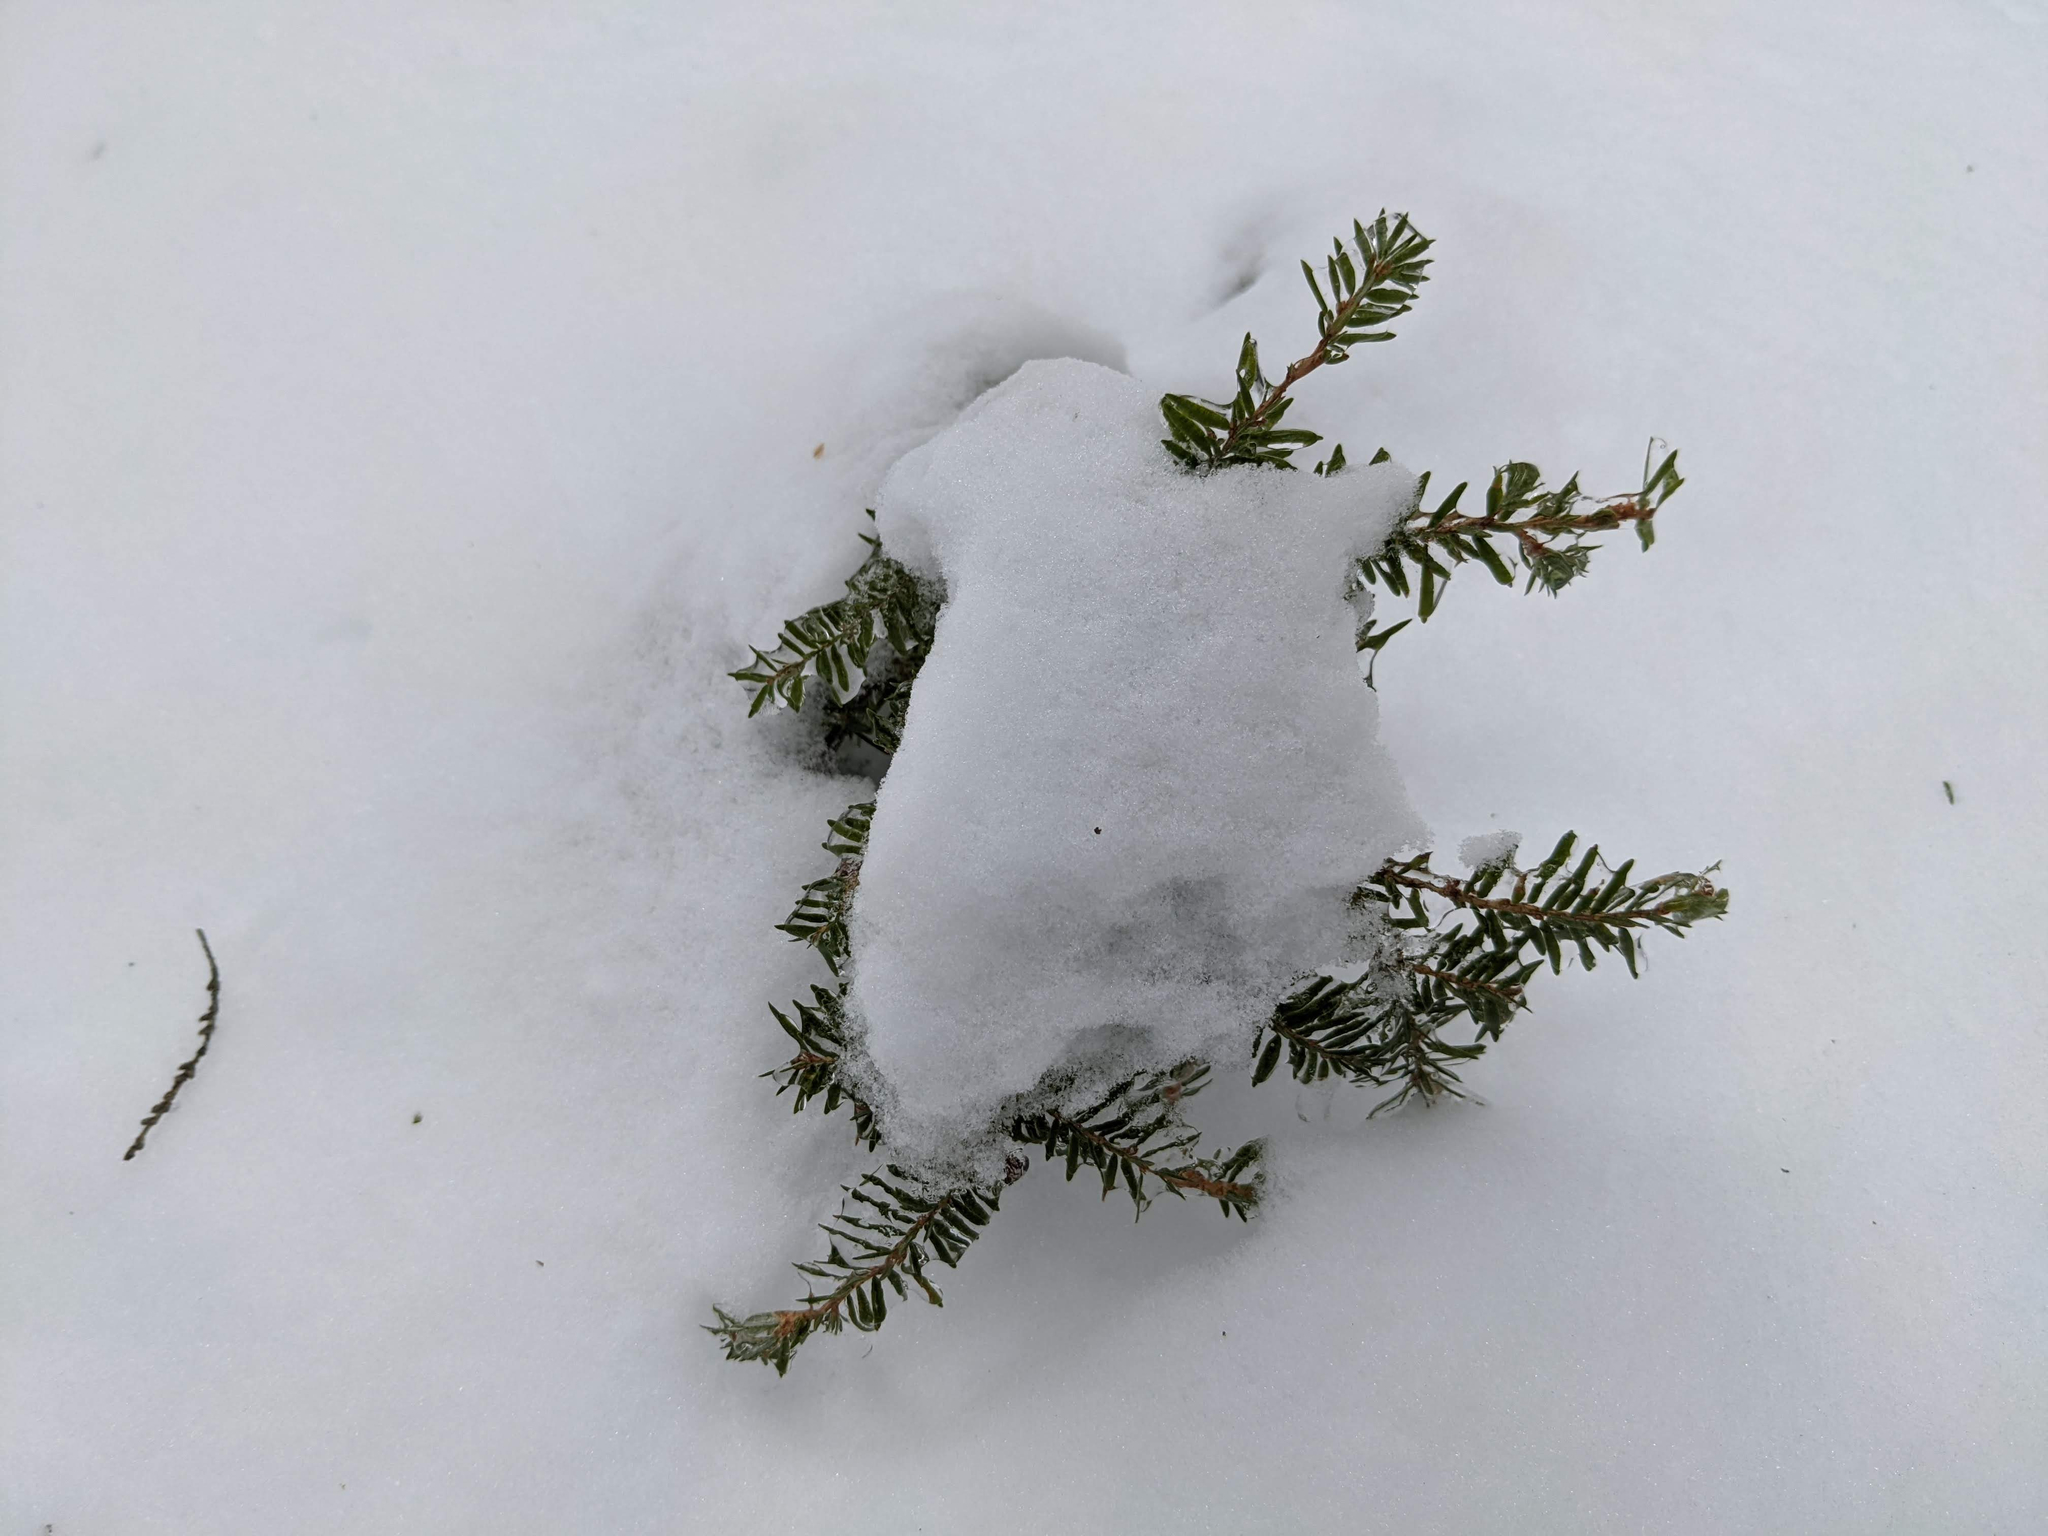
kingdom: Plantae
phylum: Tracheophyta
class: Pinopsida
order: Pinales
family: Pinaceae
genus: Tsuga
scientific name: Tsuga canadensis
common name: Eastern hemlock
